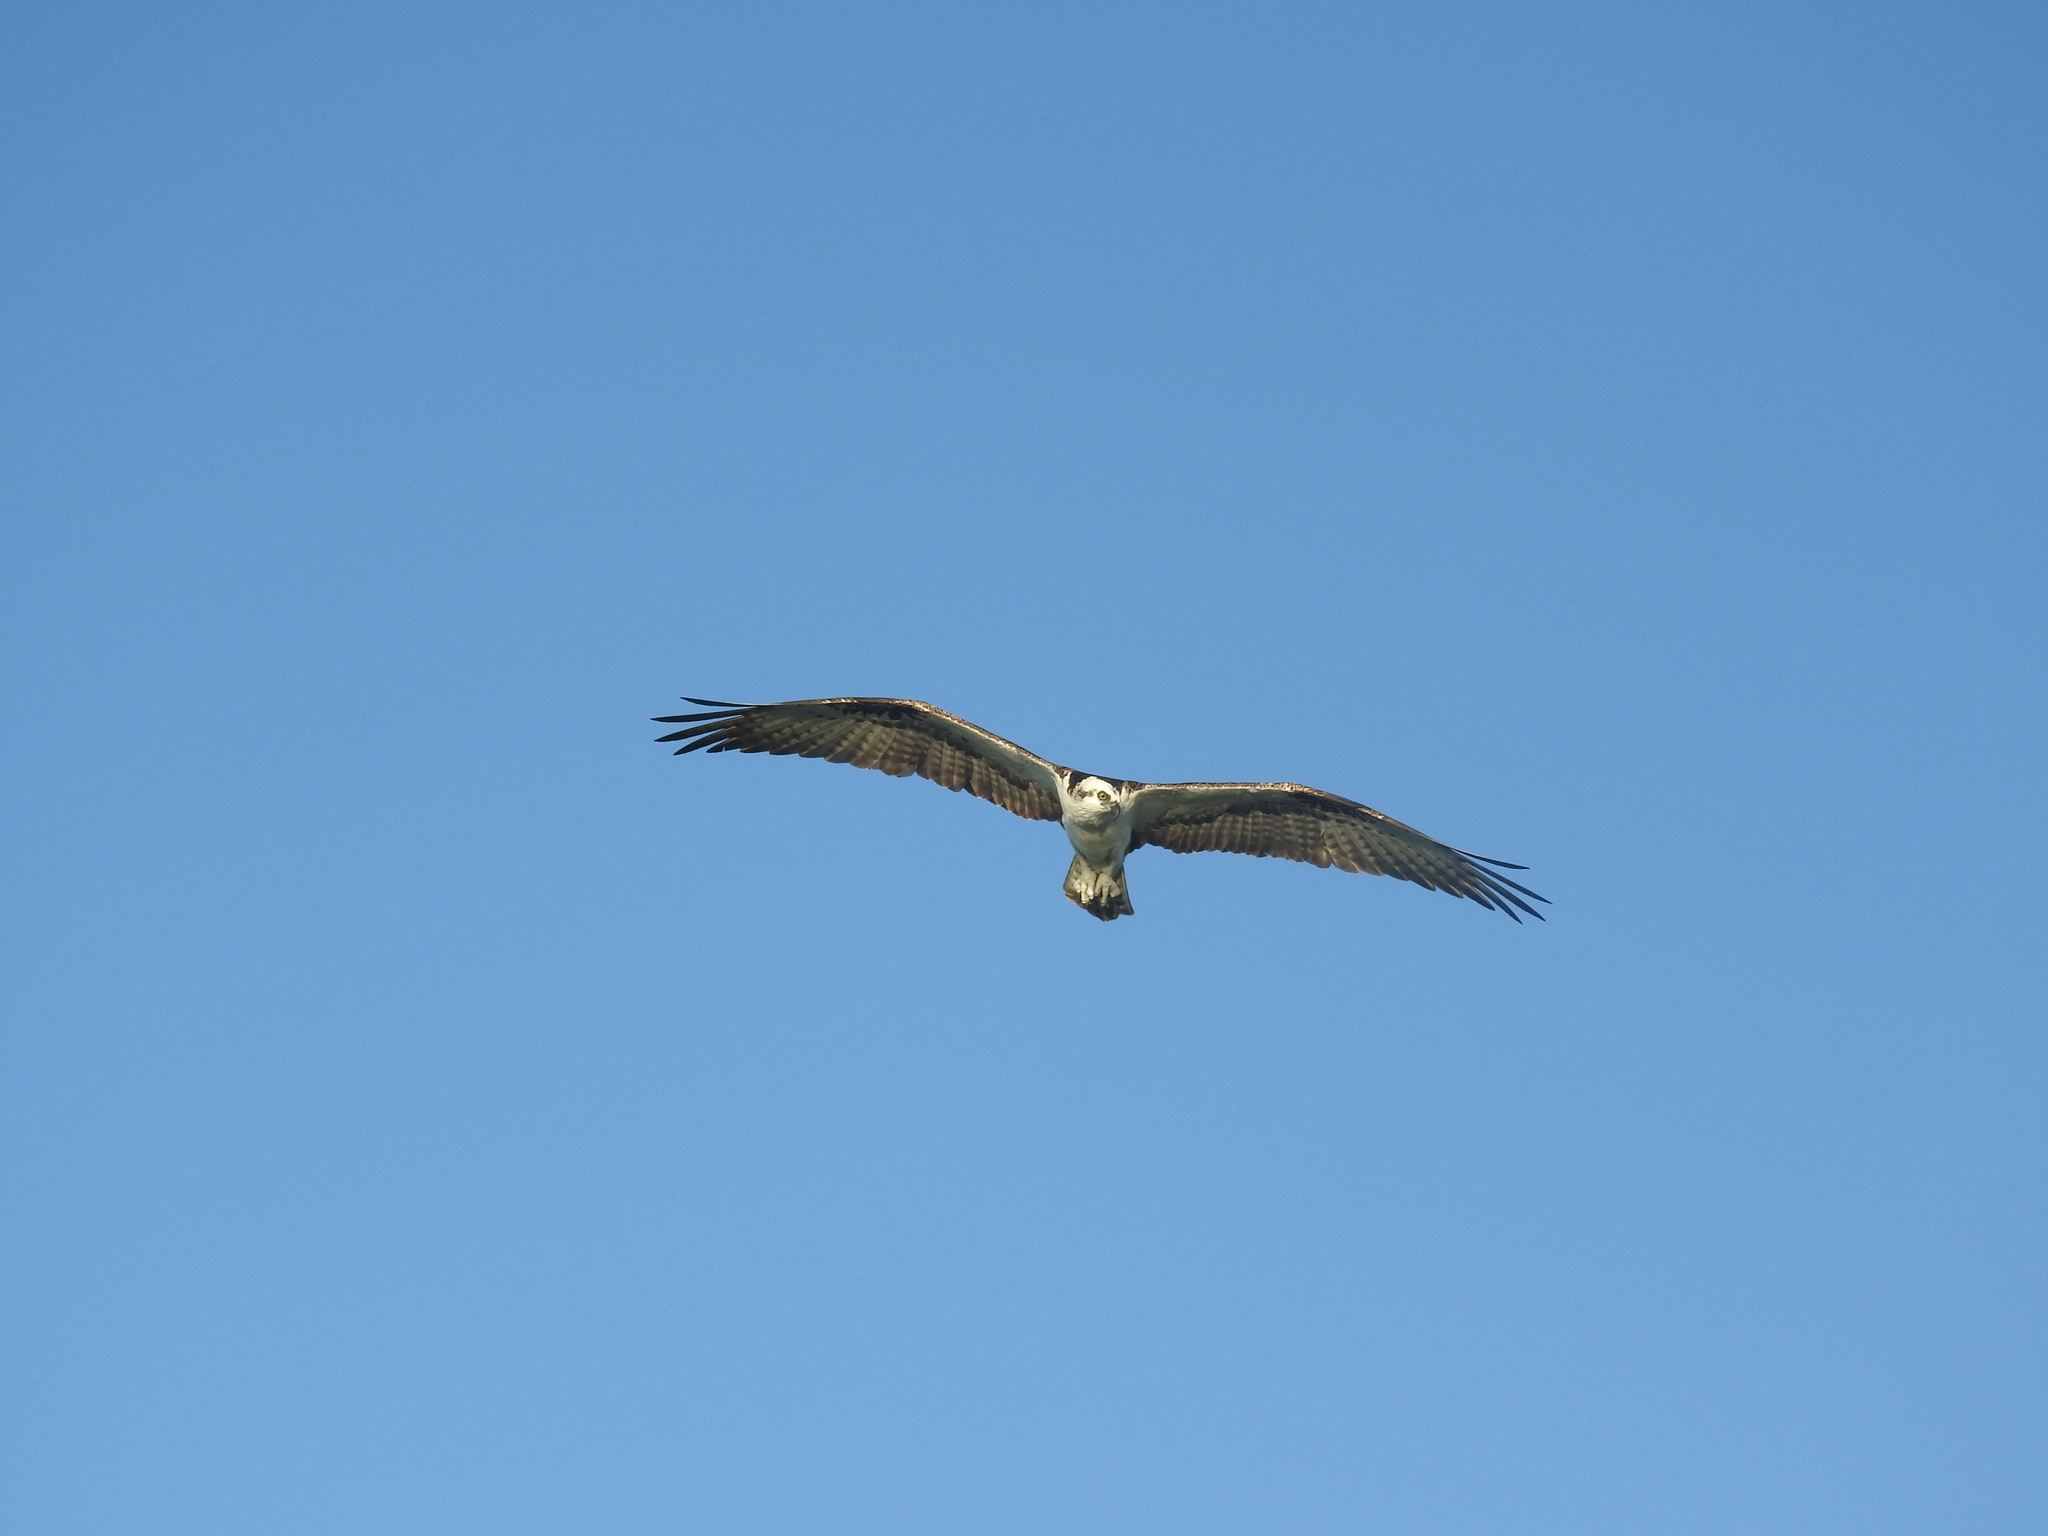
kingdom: Animalia
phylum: Chordata
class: Aves
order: Accipitriformes
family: Pandionidae
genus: Pandion
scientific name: Pandion haliaetus
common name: Osprey
